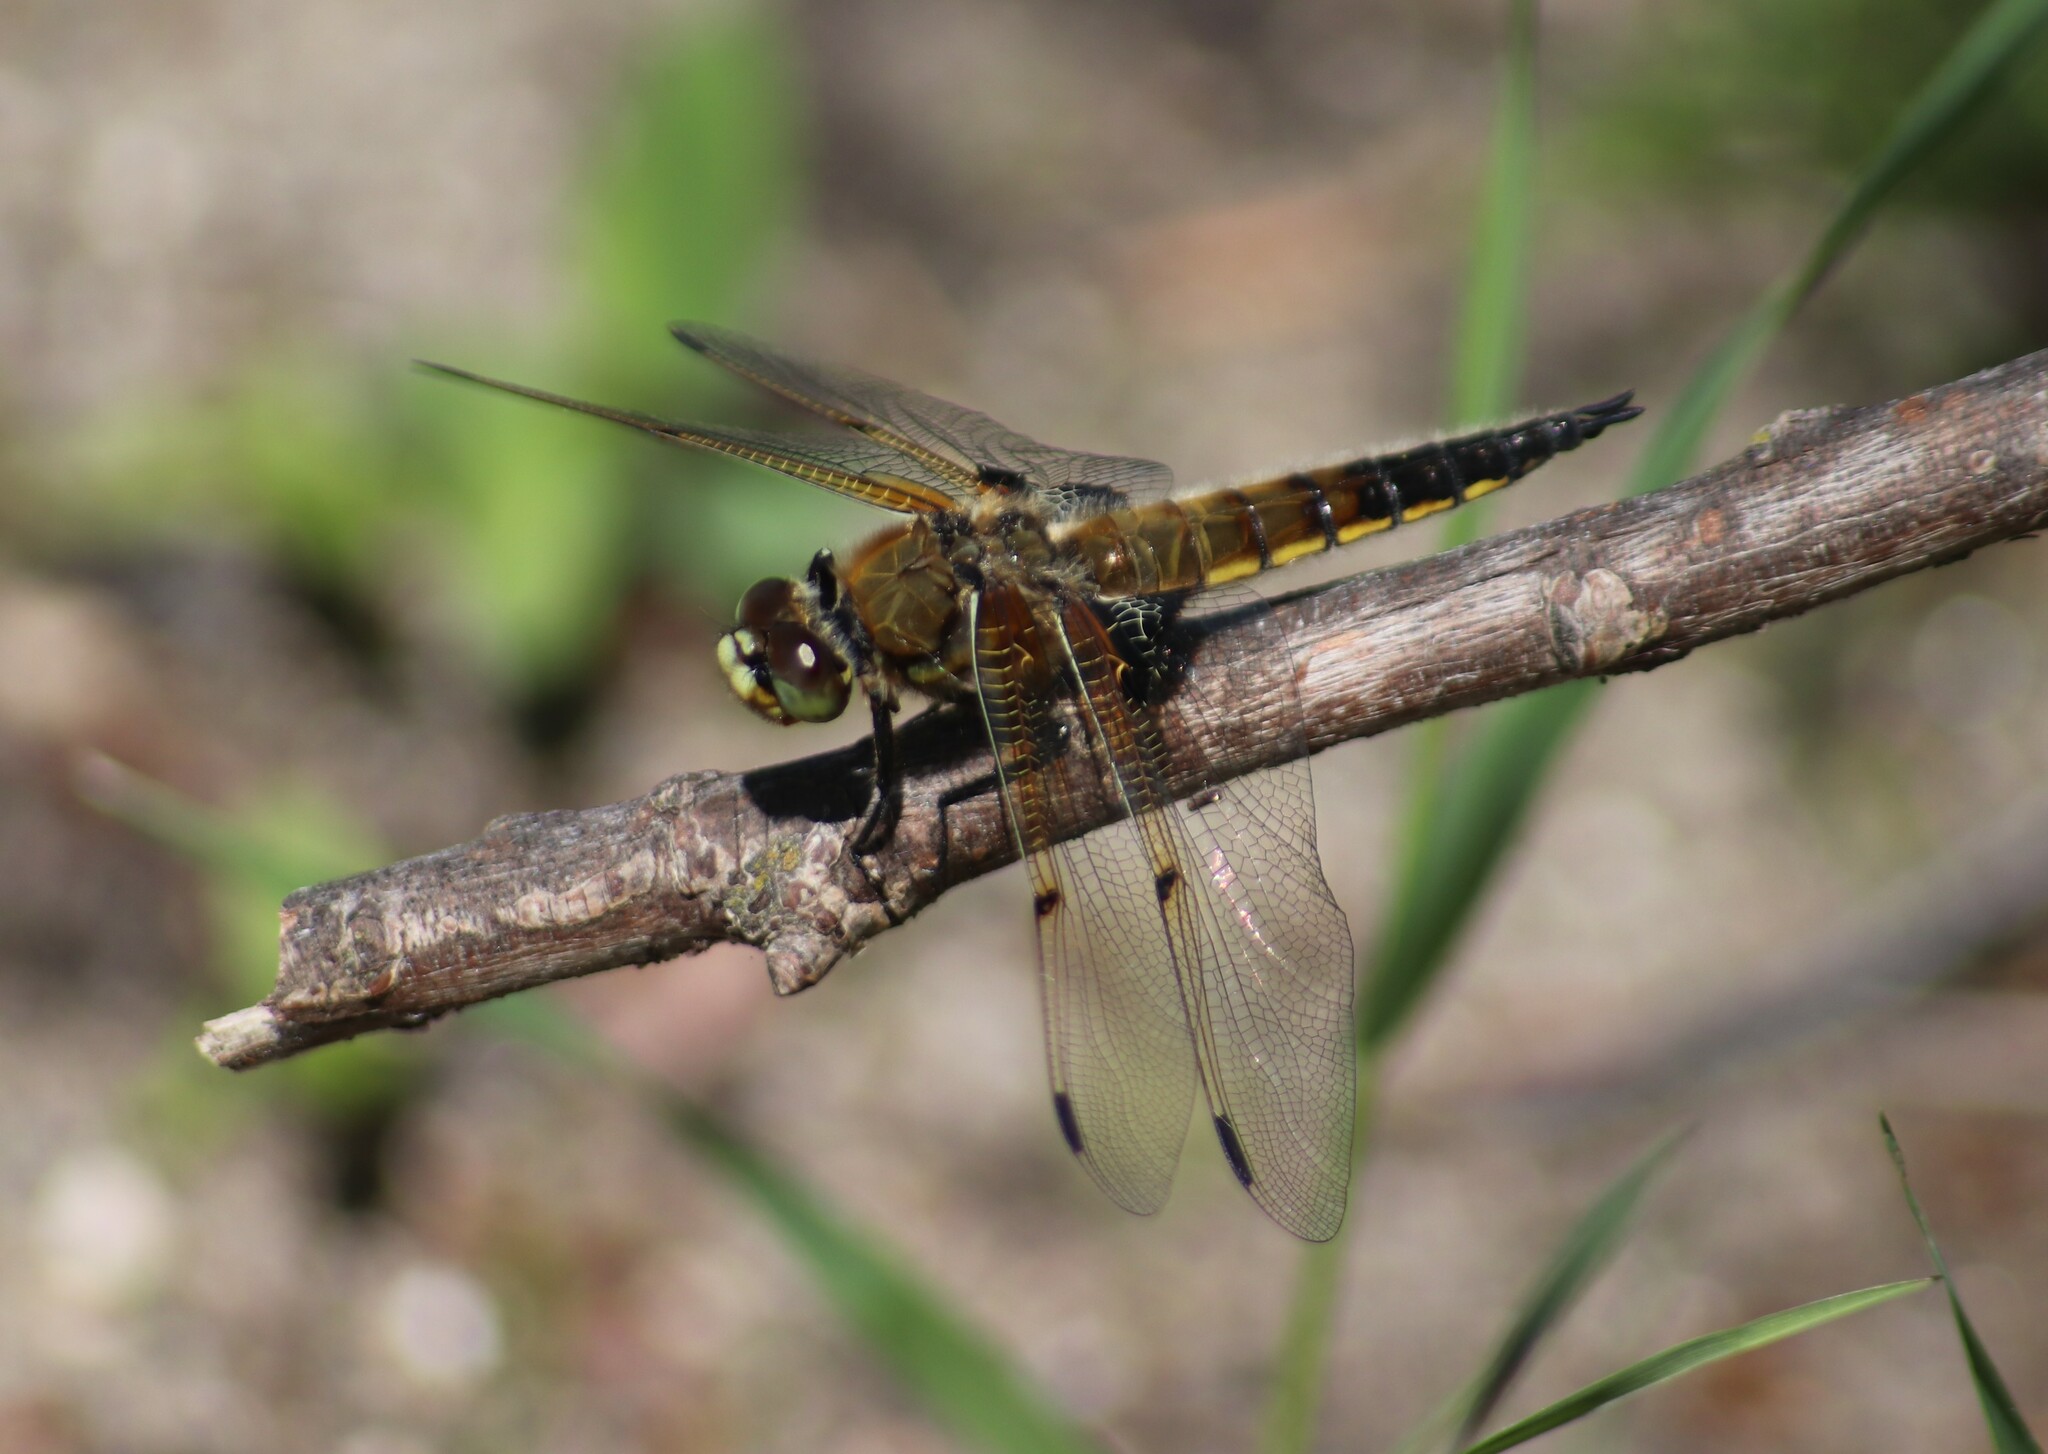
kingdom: Animalia
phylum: Arthropoda
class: Insecta
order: Odonata
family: Libellulidae
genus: Libellula
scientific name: Libellula quadrimaculata
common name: Four-spotted chaser
